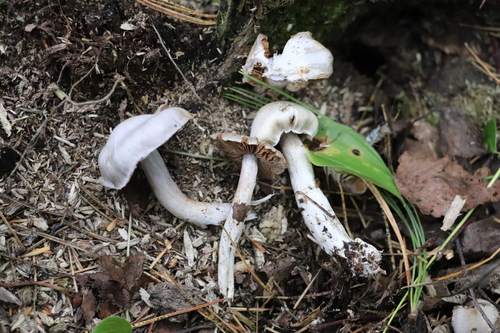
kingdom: Fungi
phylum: Basidiomycota
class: Agaricomycetes
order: Agaricales
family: Cortinariaceae
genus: Cortinarius
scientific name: Cortinarius alboviolaceus
